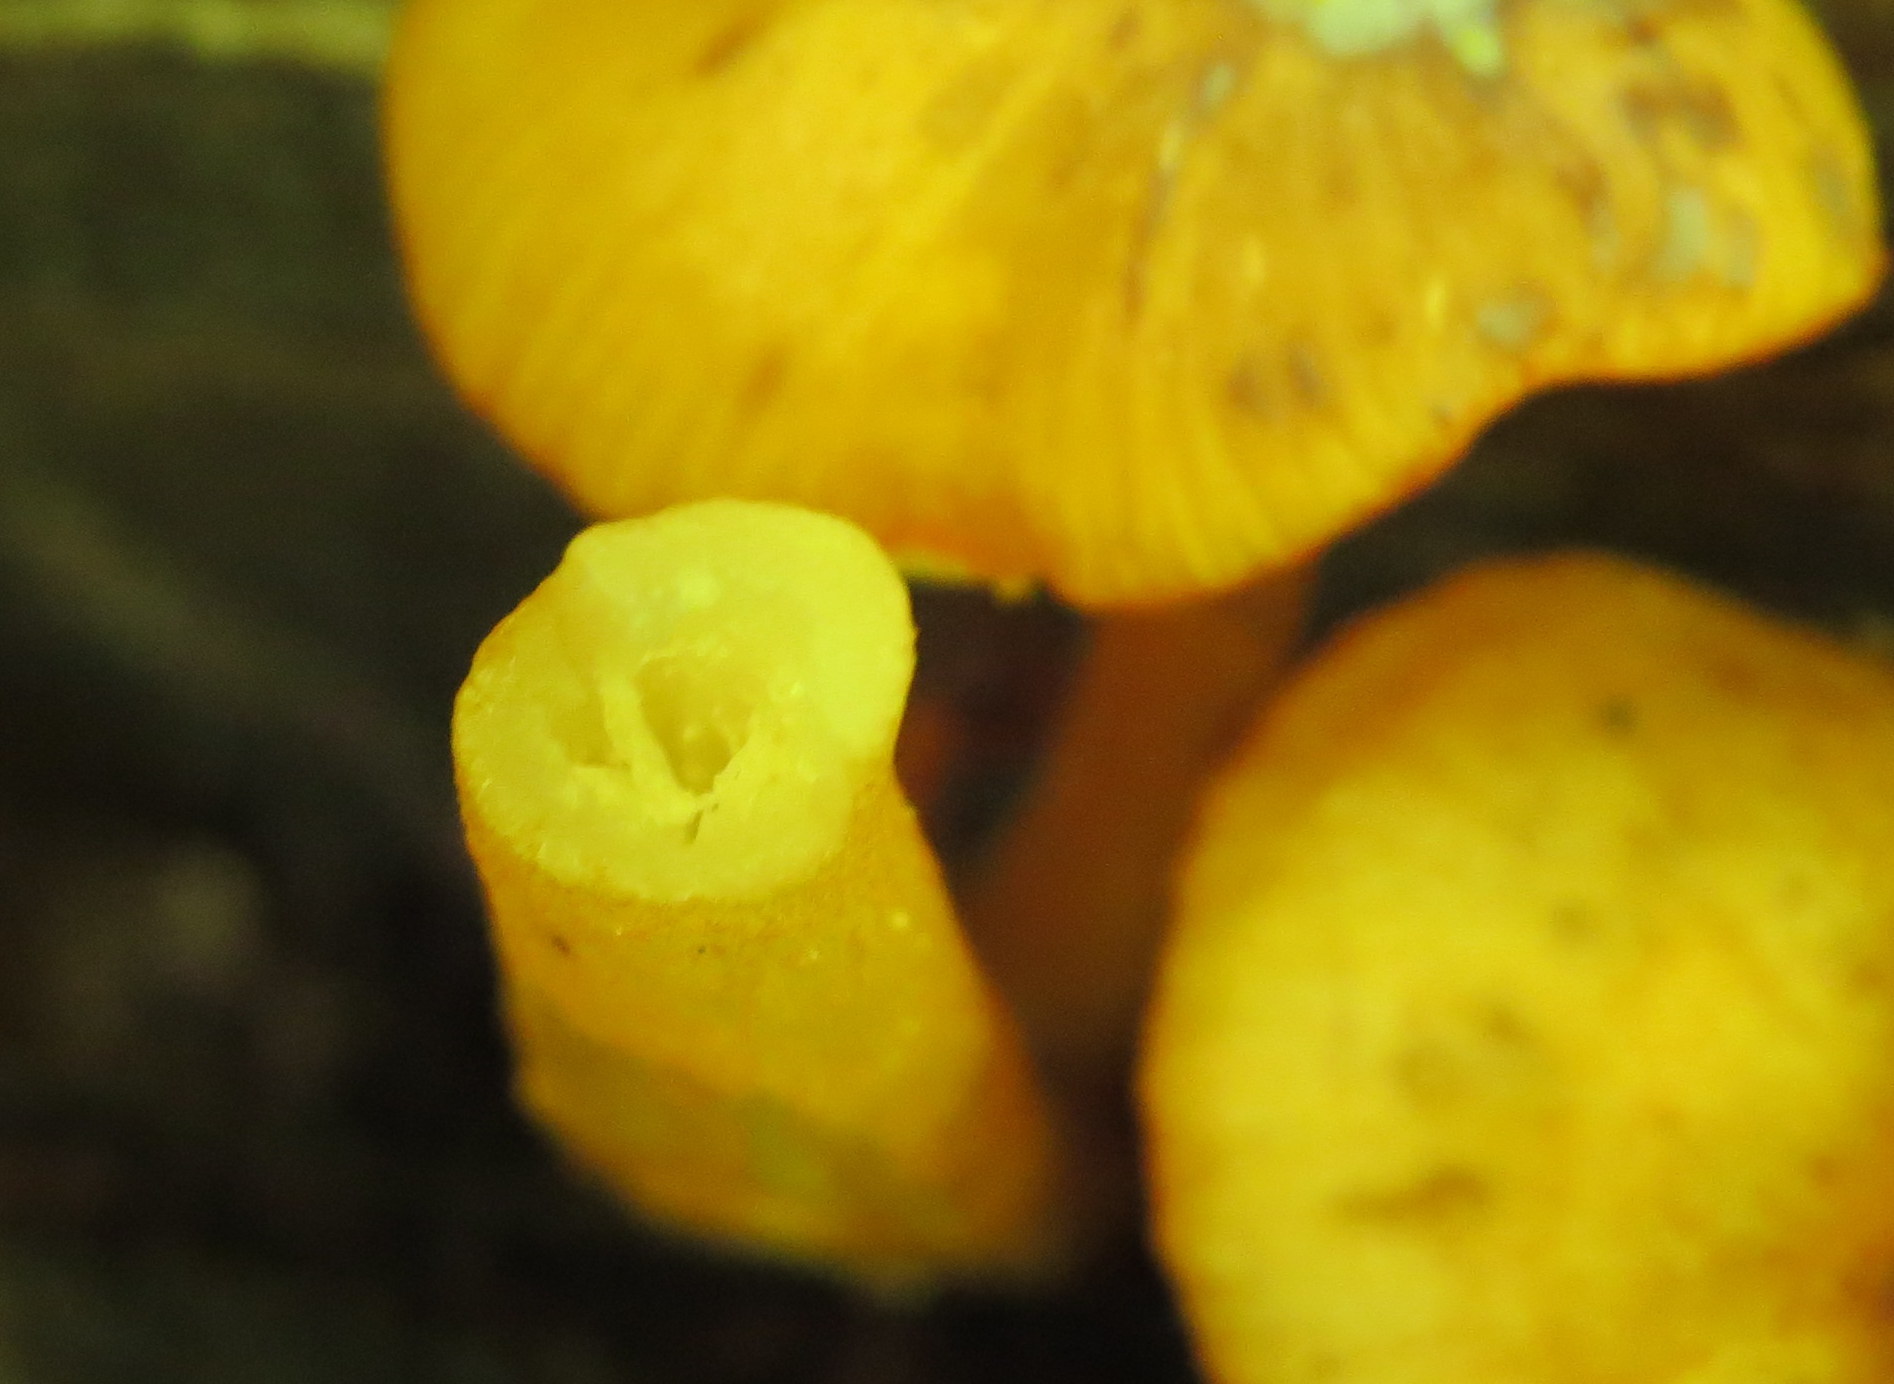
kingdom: Fungi
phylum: Basidiomycota
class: Agaricomycetes
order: Agaricales
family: Mycenaceae
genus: Mycena
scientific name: Mycena leaiana
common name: Orange mycena
